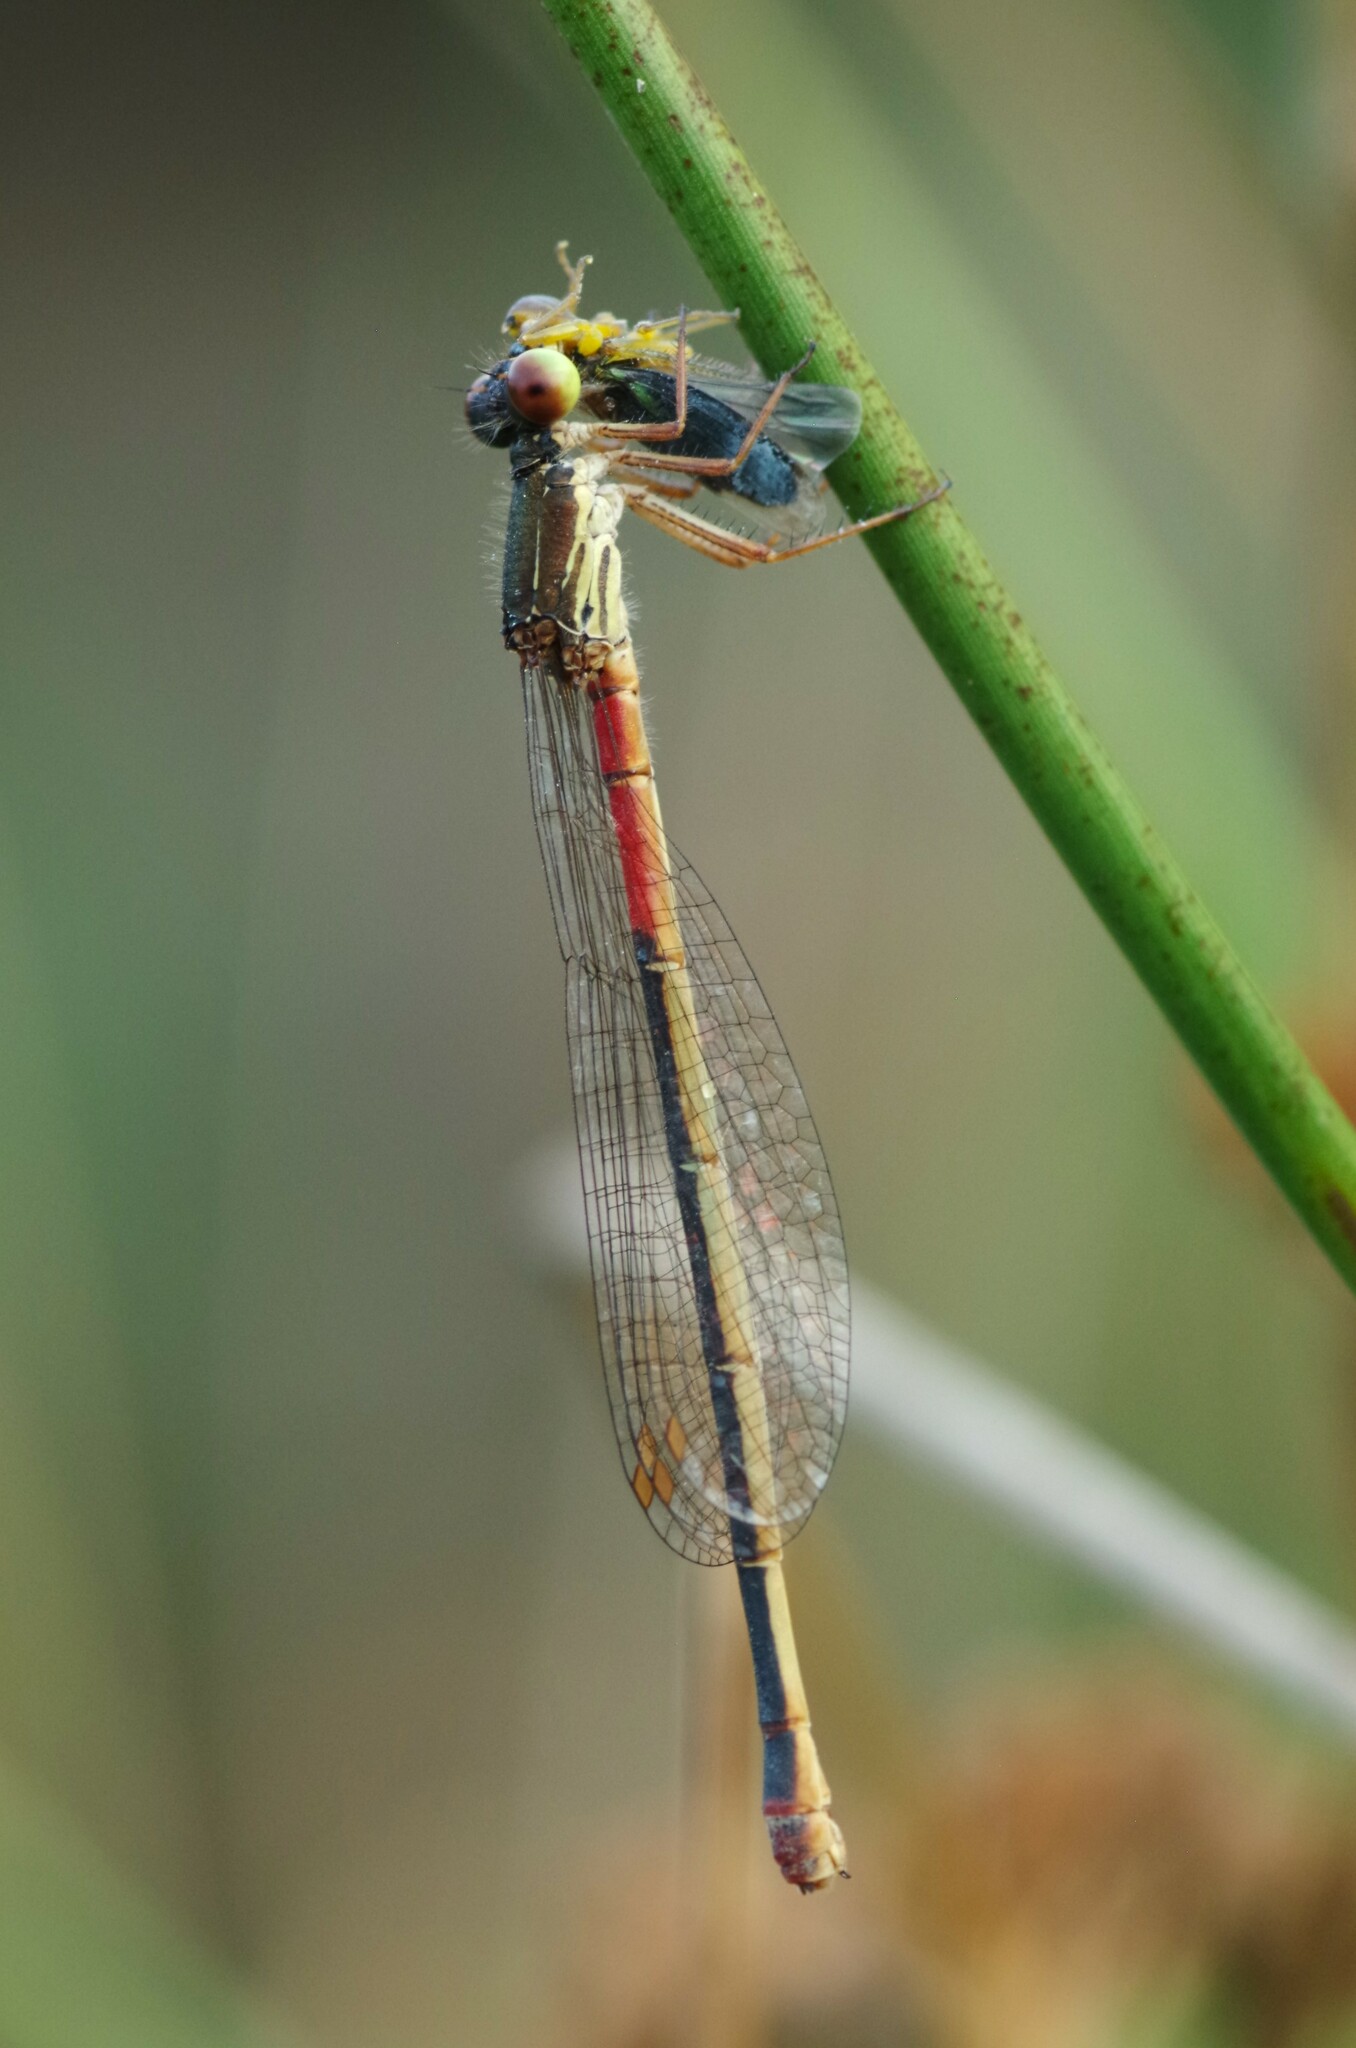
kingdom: Animalia
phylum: Arthropoda
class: Insecta
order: Odonata
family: Coenagrionidae
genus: Ceriagrion
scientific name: Ceriagrion tenellum
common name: Small red damselfly
